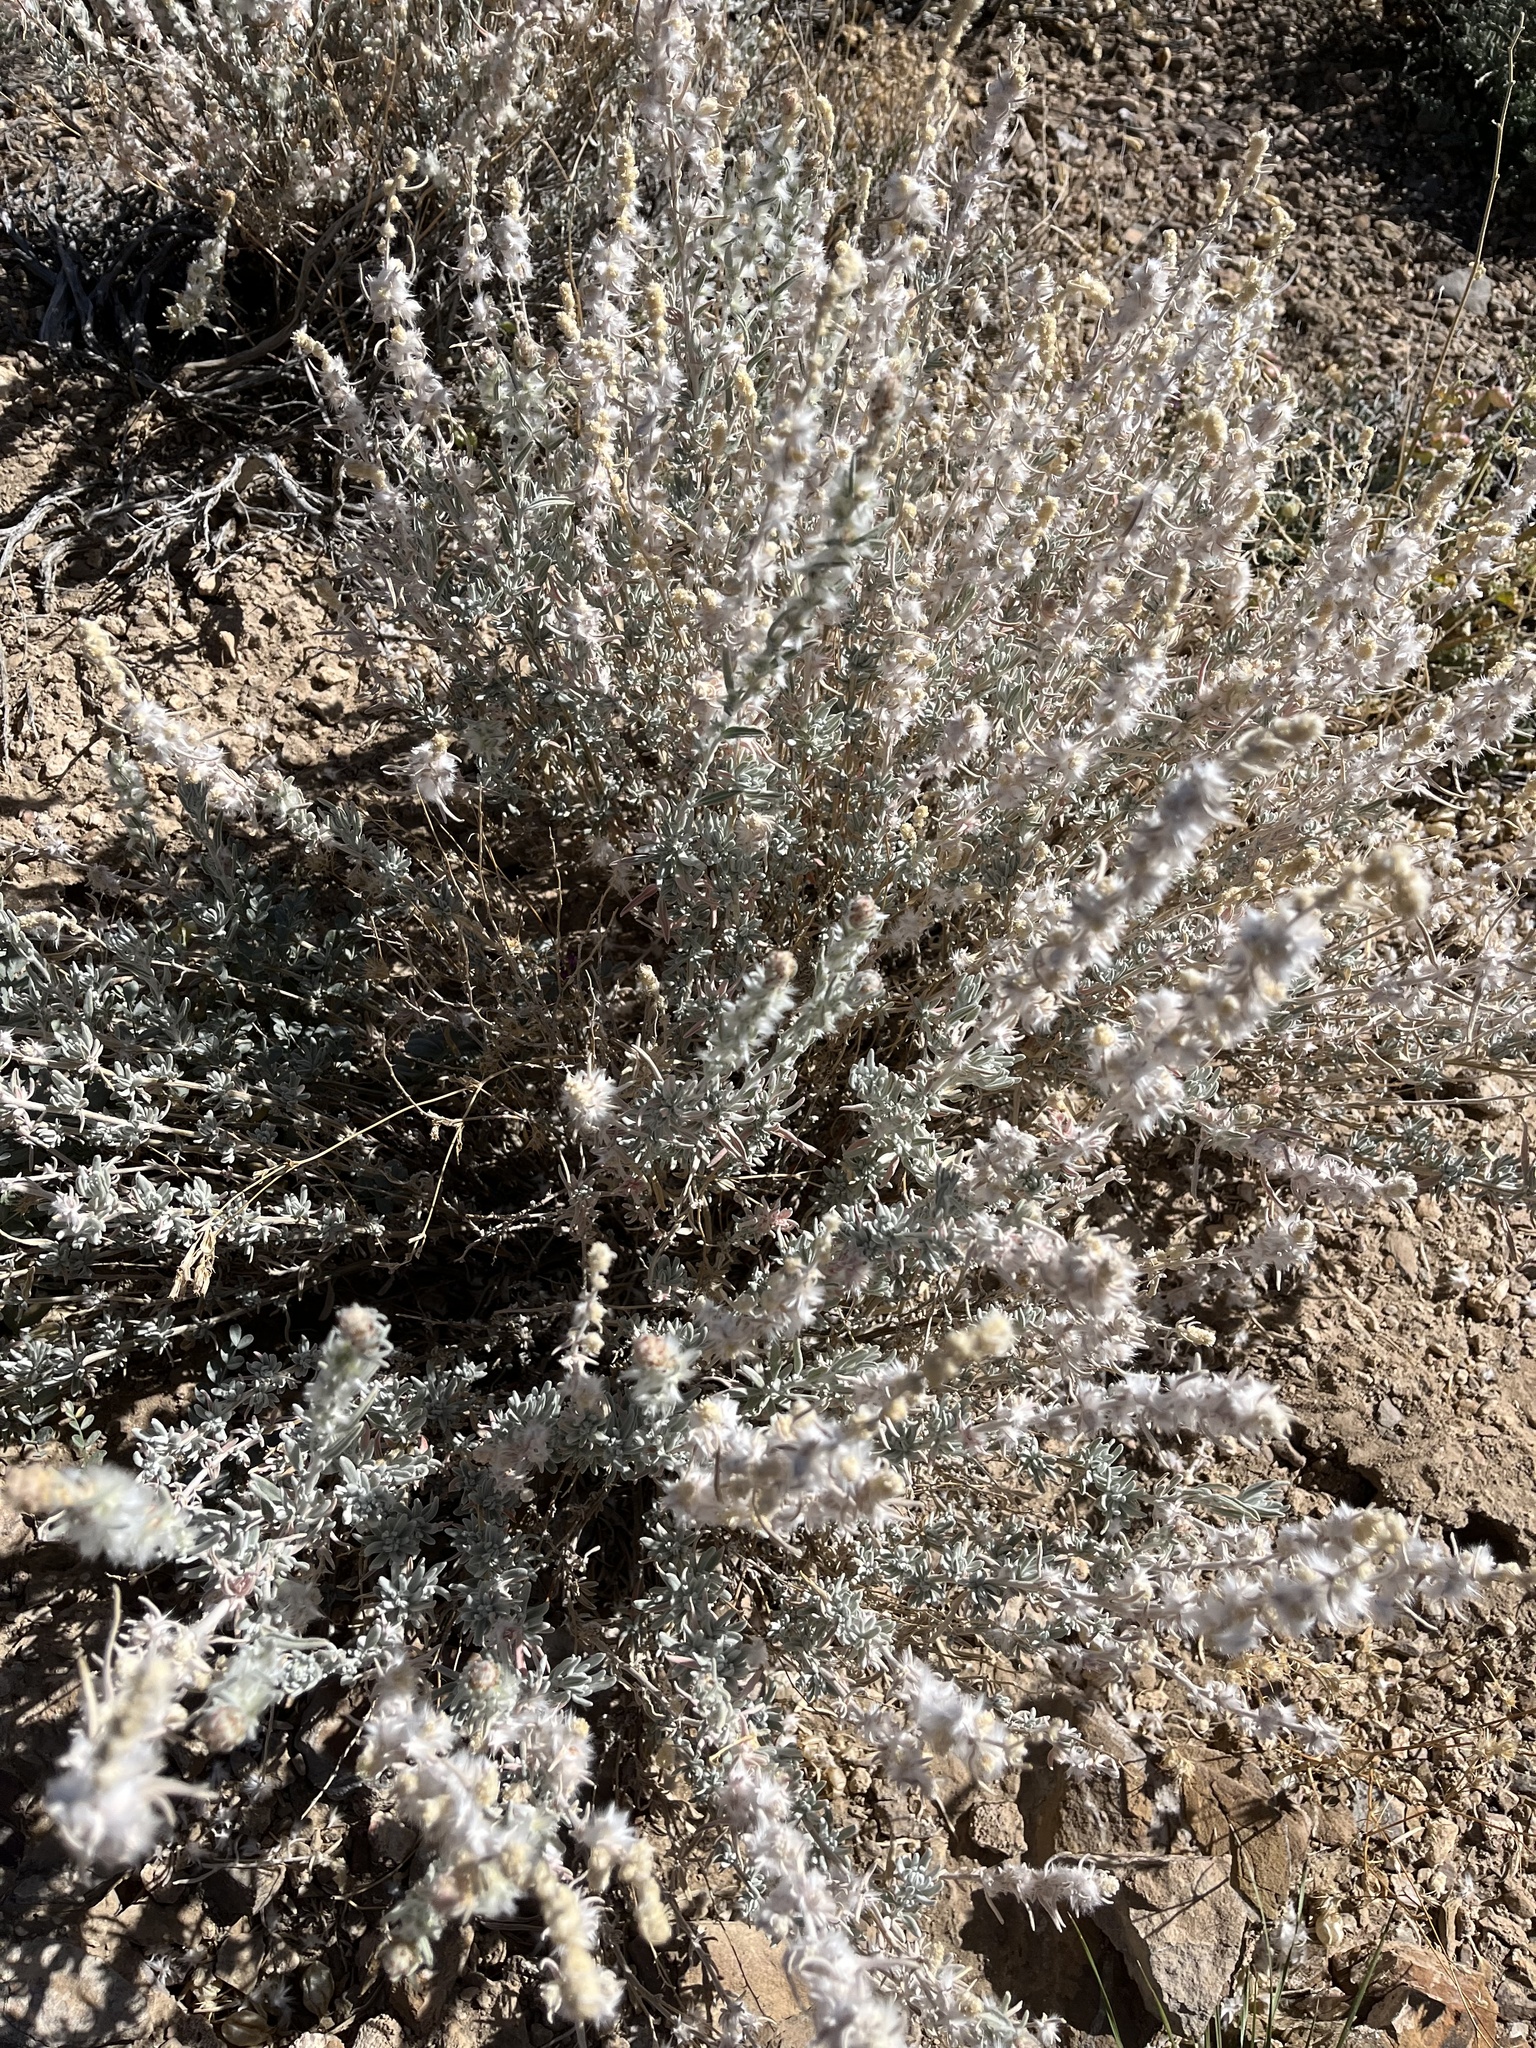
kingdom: Plantae
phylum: Tracheophyta
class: Magnoliopsida
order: Caryophyllales
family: Amaranthaceae
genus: Krascheninnikovia
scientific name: Krascheninnikovia lanata
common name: Winterfat
